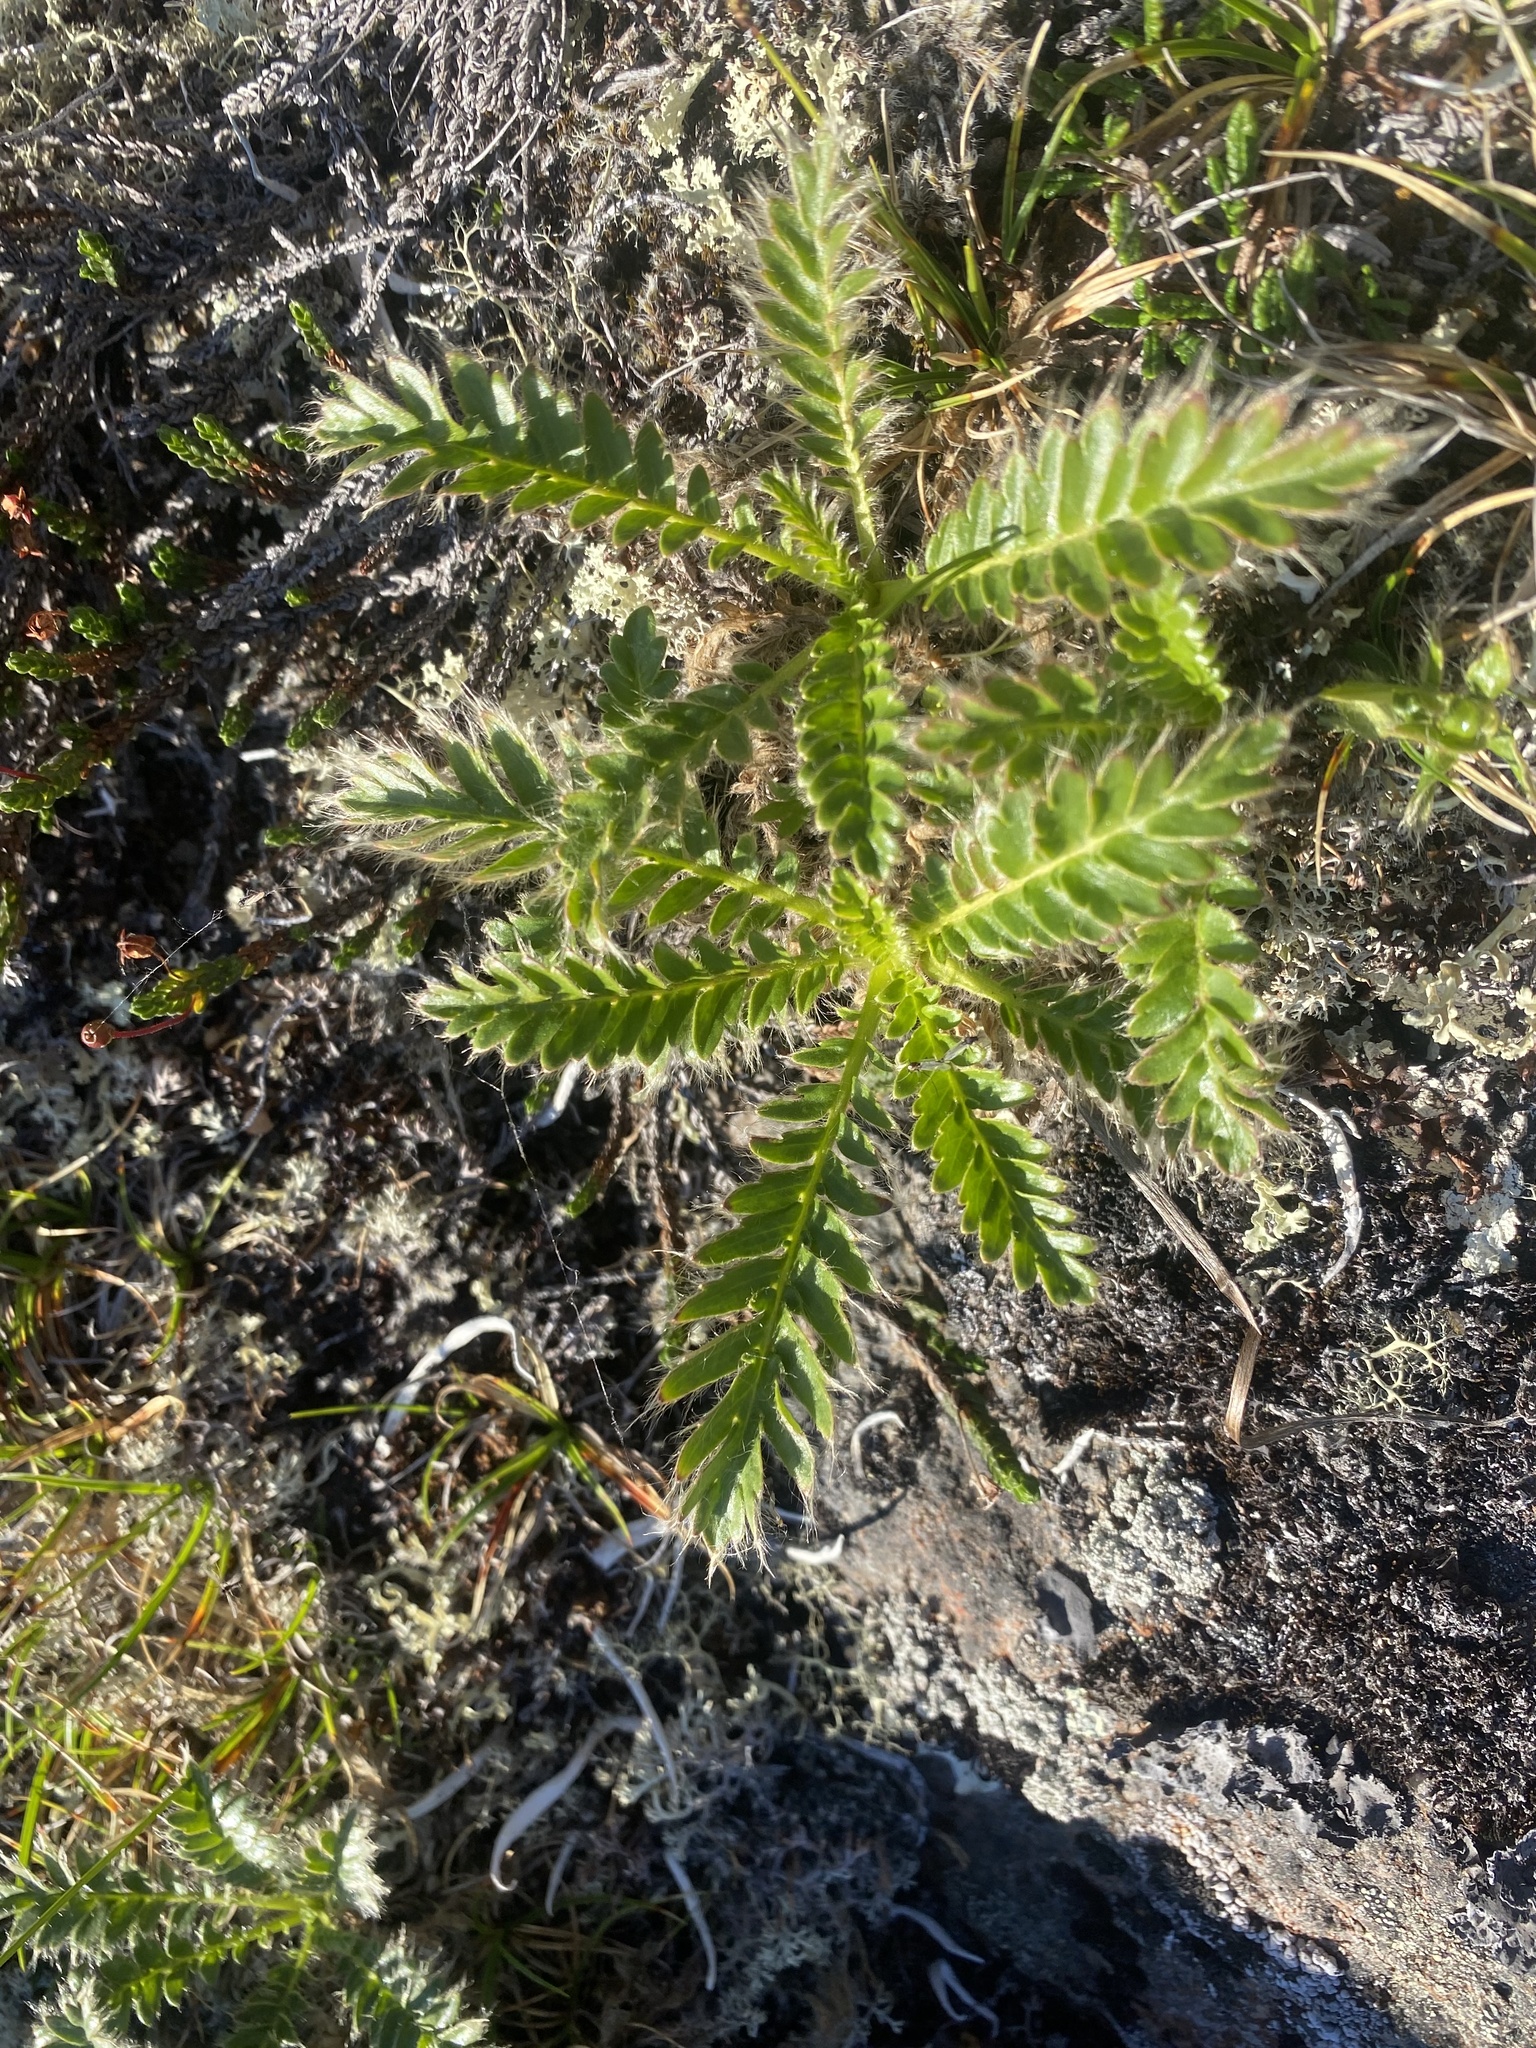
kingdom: Plantae
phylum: Tracheophyta
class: Magnoliopsida
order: Rosales
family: Rosaceae
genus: Geum
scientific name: Geum glaciale
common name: Glacier avens
